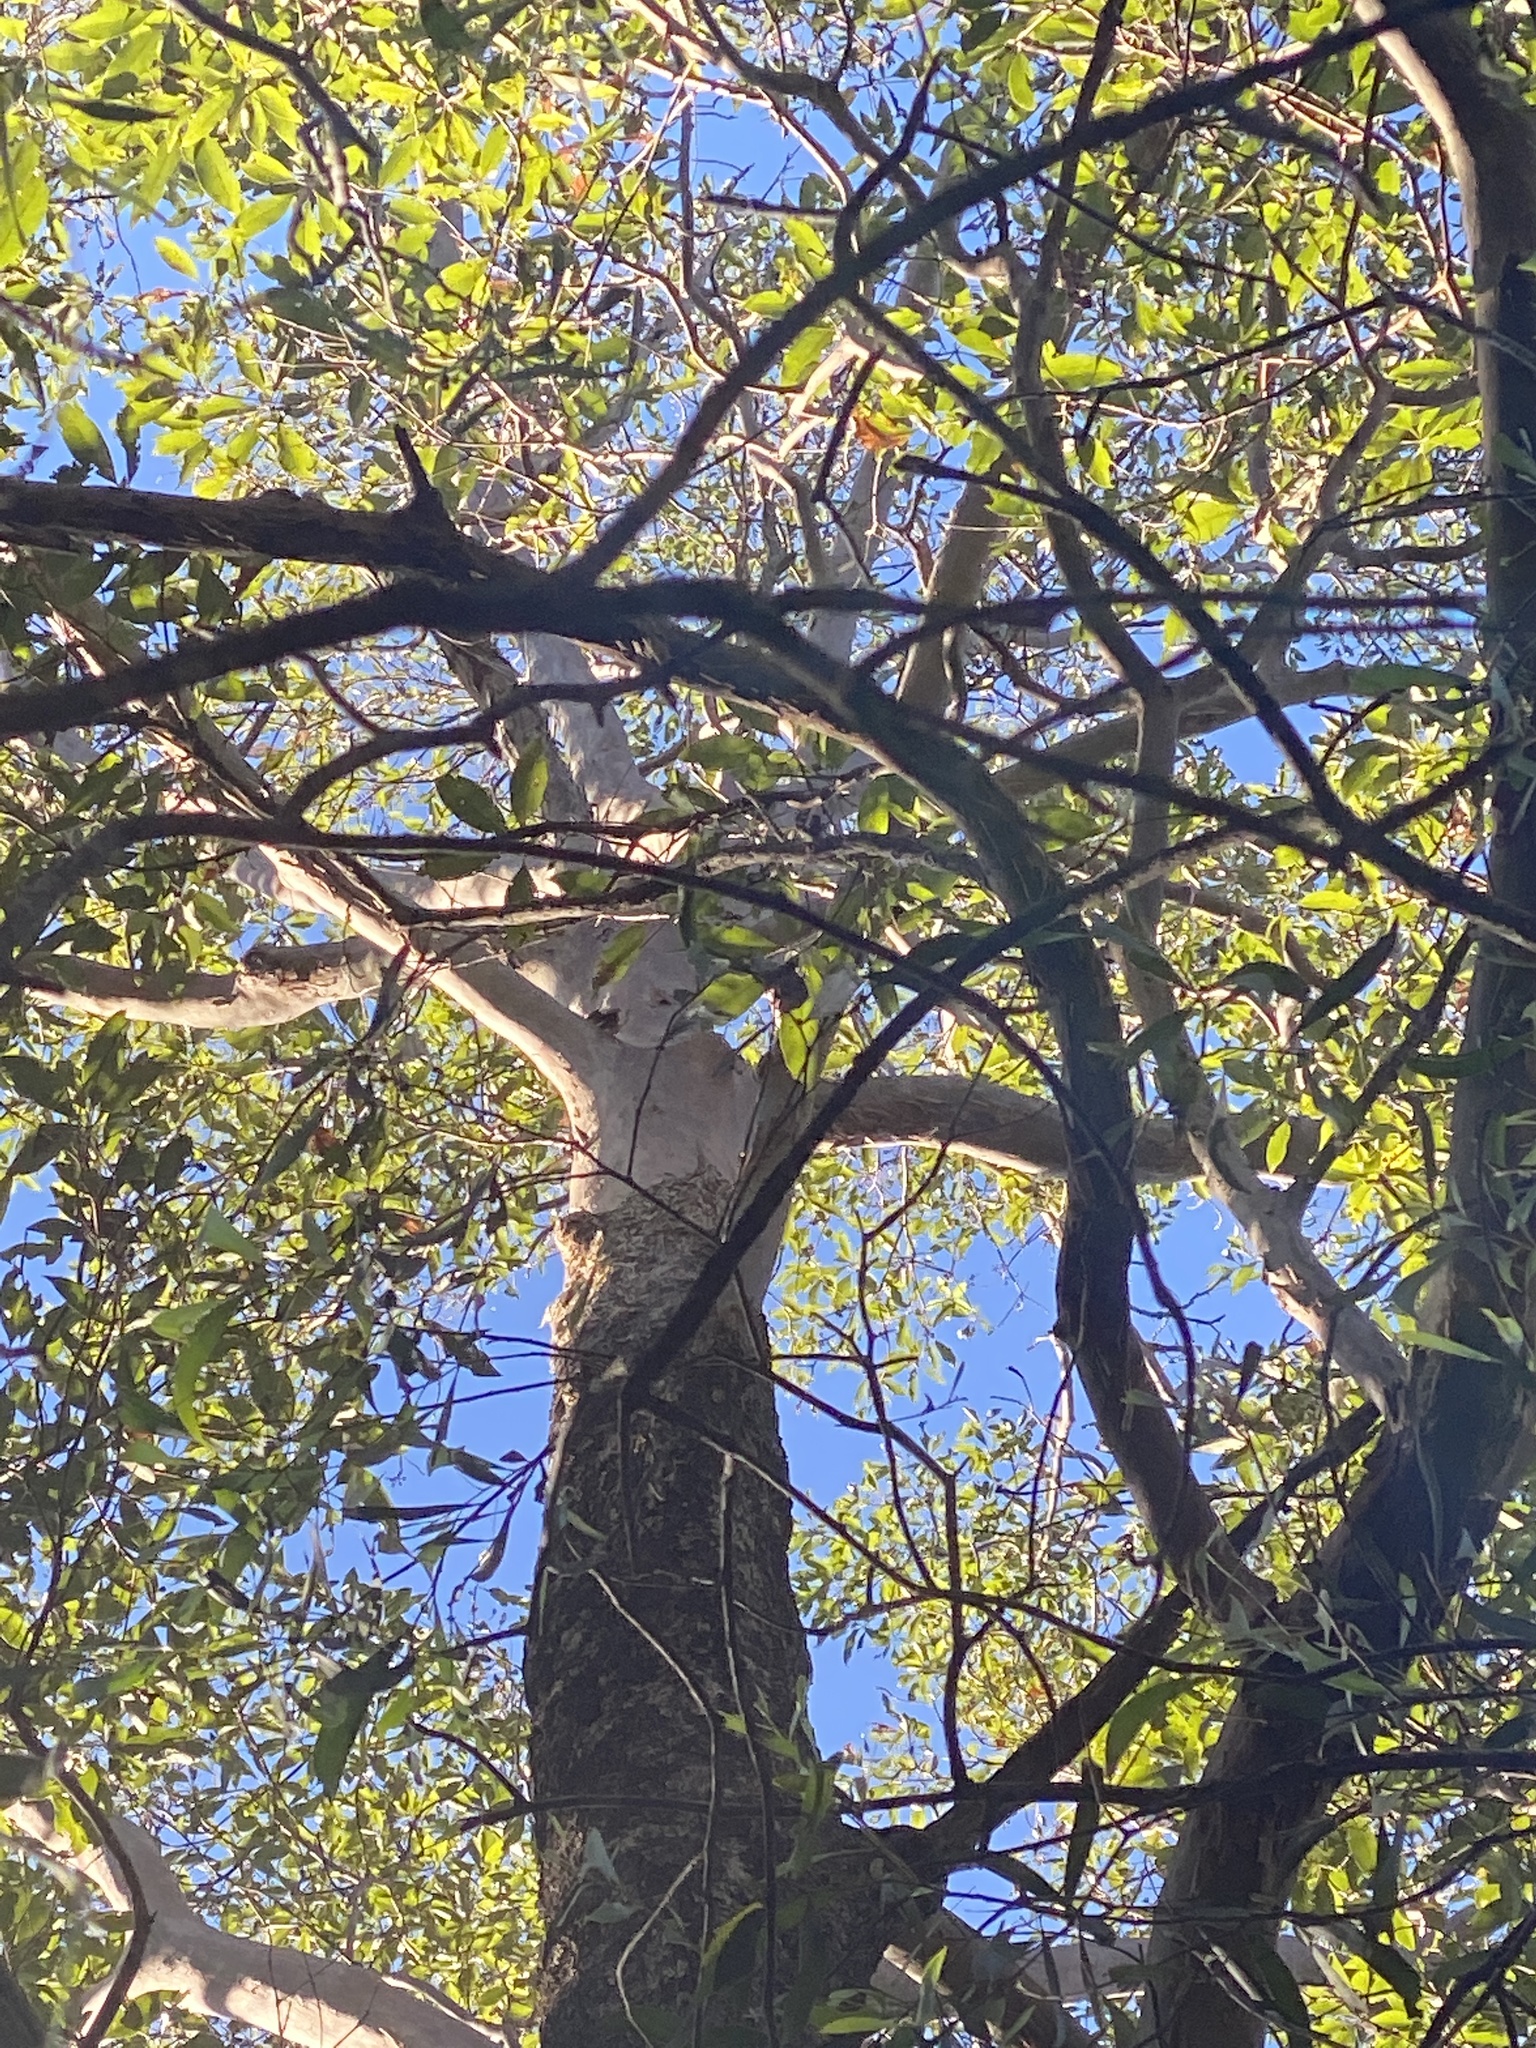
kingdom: Plantae
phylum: Tracheophyta
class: Magnoliopsida
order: Myrtales
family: Myrtaceae
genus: Lophostemon
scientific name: Lophostemon confertus
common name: Brisbane box
